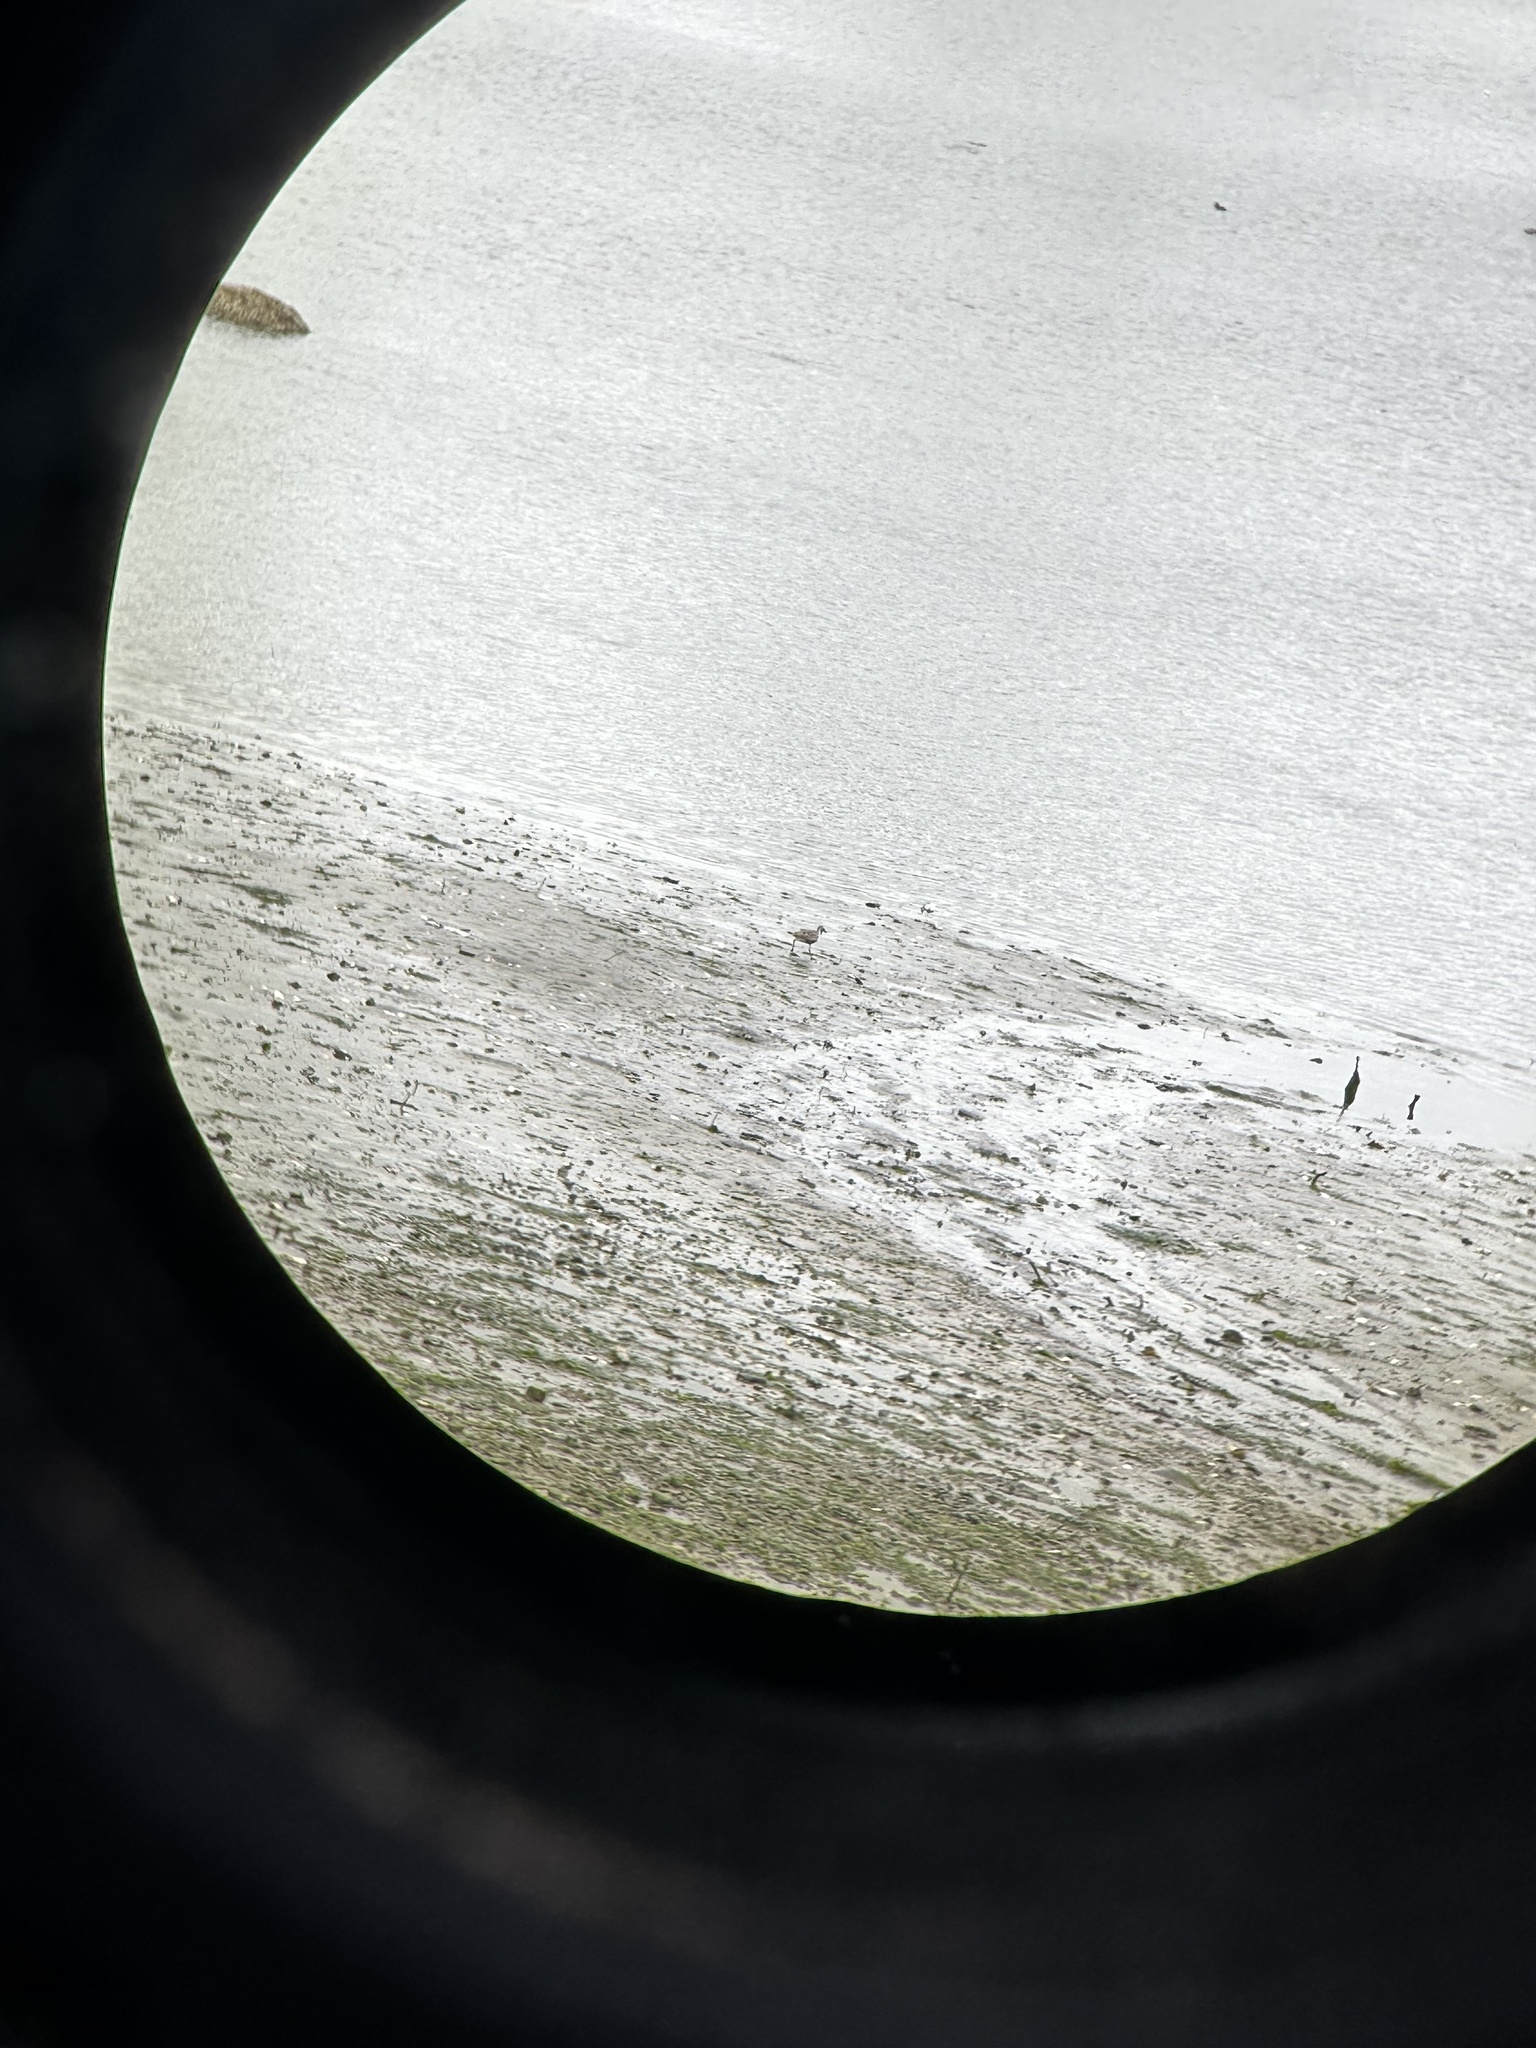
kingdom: Animalia
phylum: Chordata
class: Aves
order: Charadriiformes
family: Charadriidae
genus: Pluvialis
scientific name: Pluvialis squatarola
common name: Grey plover
